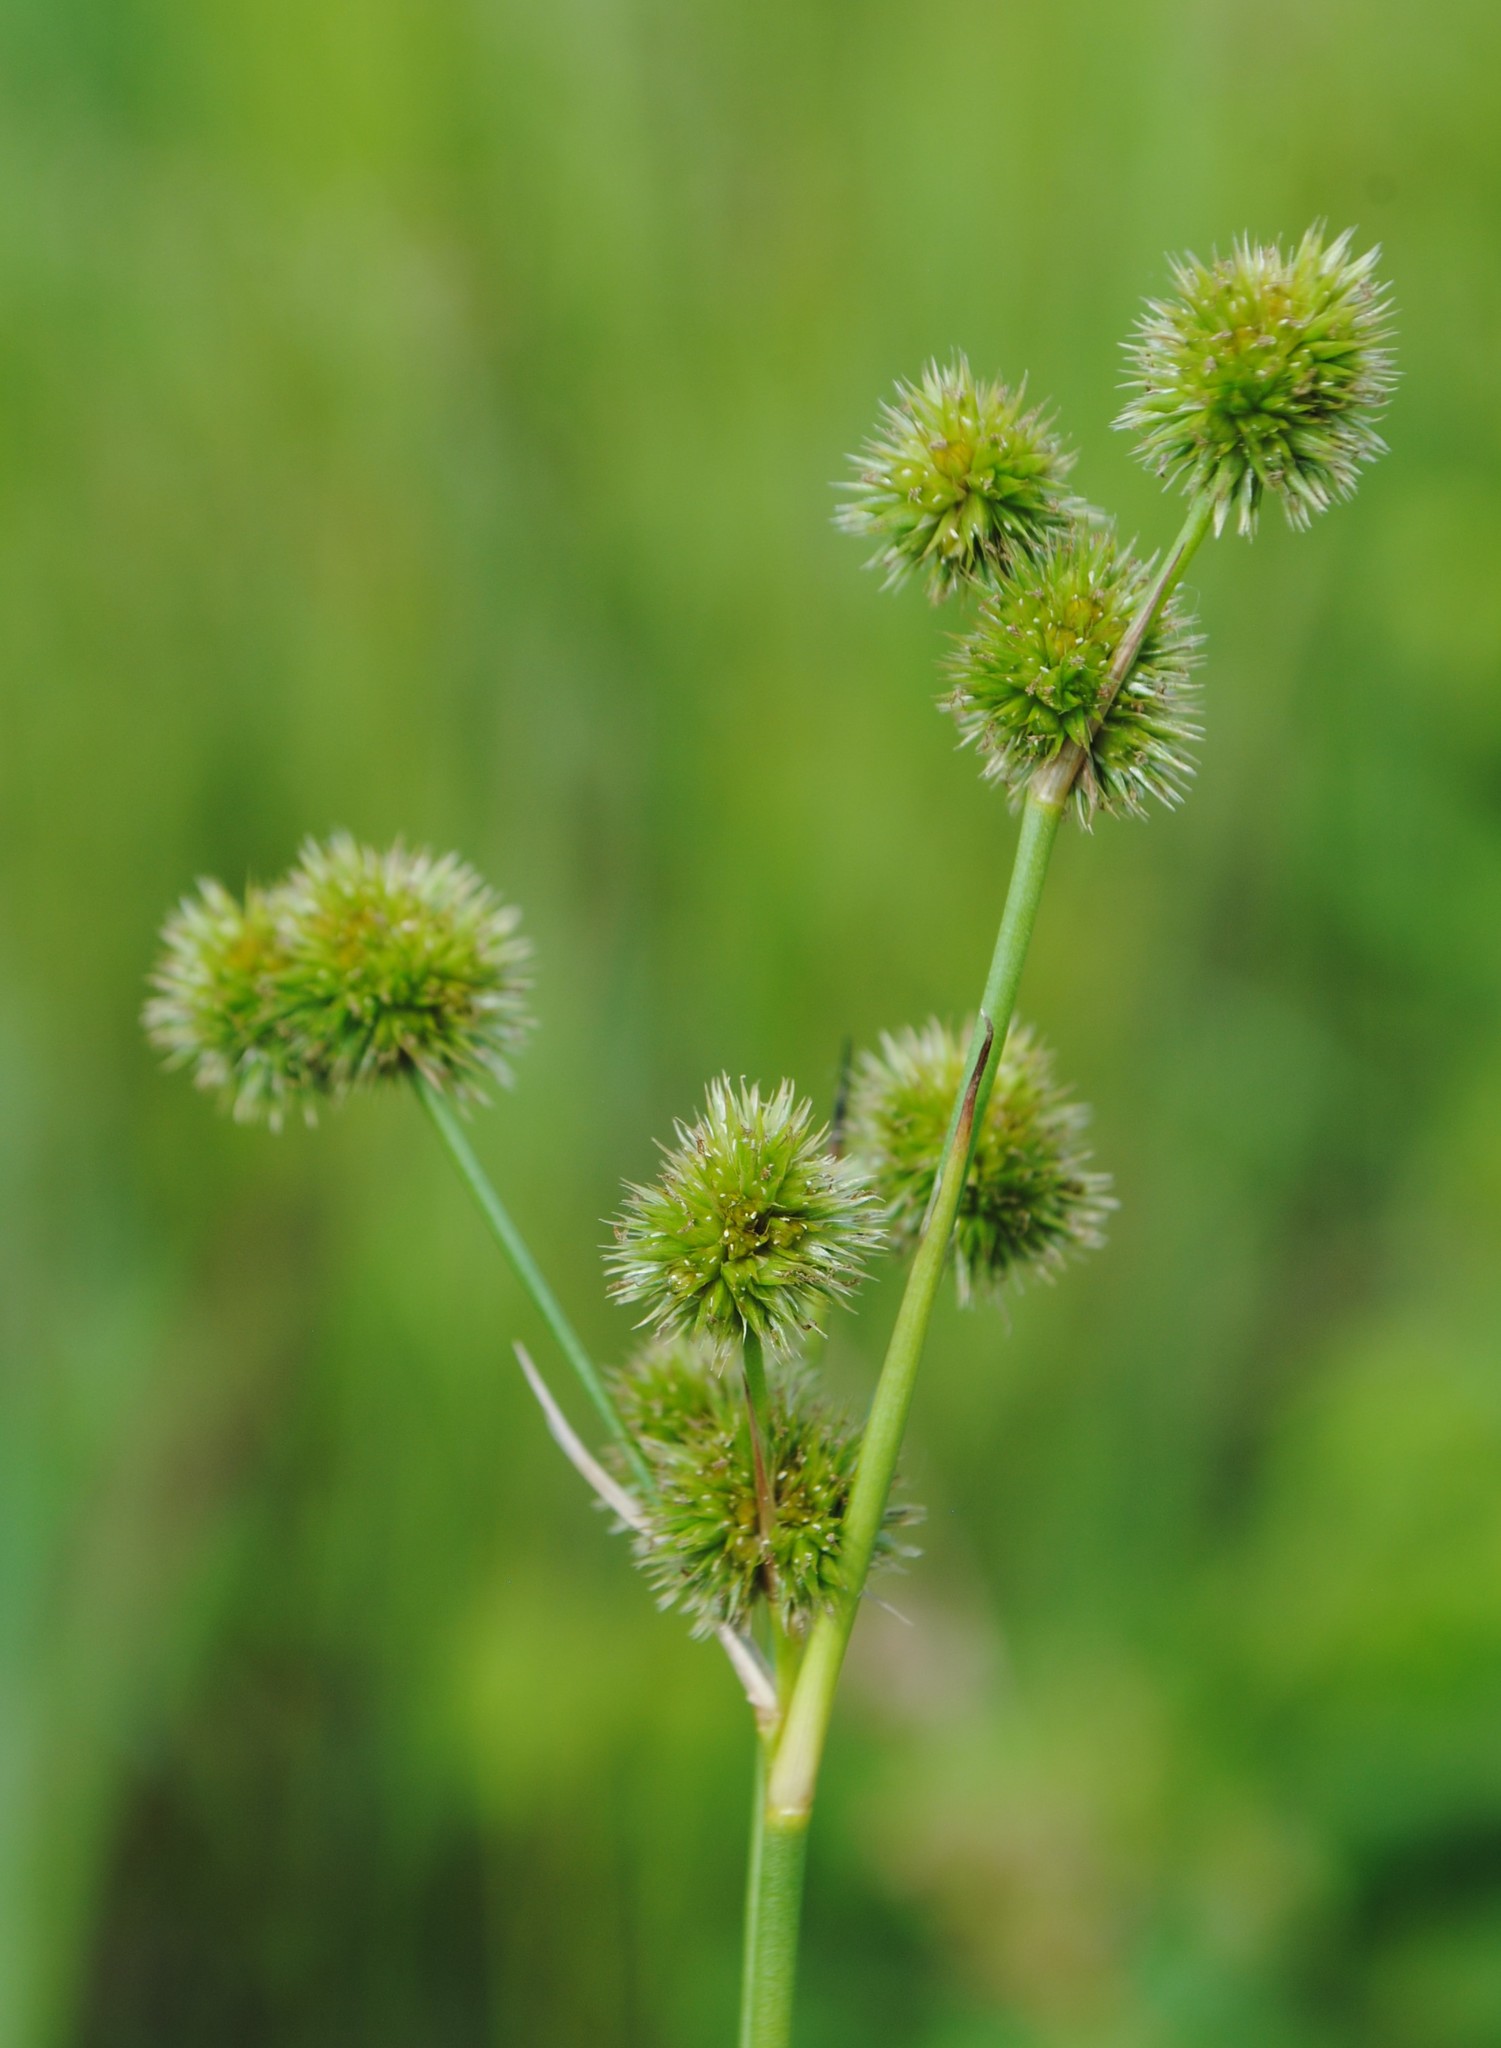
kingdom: Plantae
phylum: Tracheophyta
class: Liliopsida
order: Poales
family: Juncaceae
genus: Juncus
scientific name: Juncus brachycarpus
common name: Shore rush
